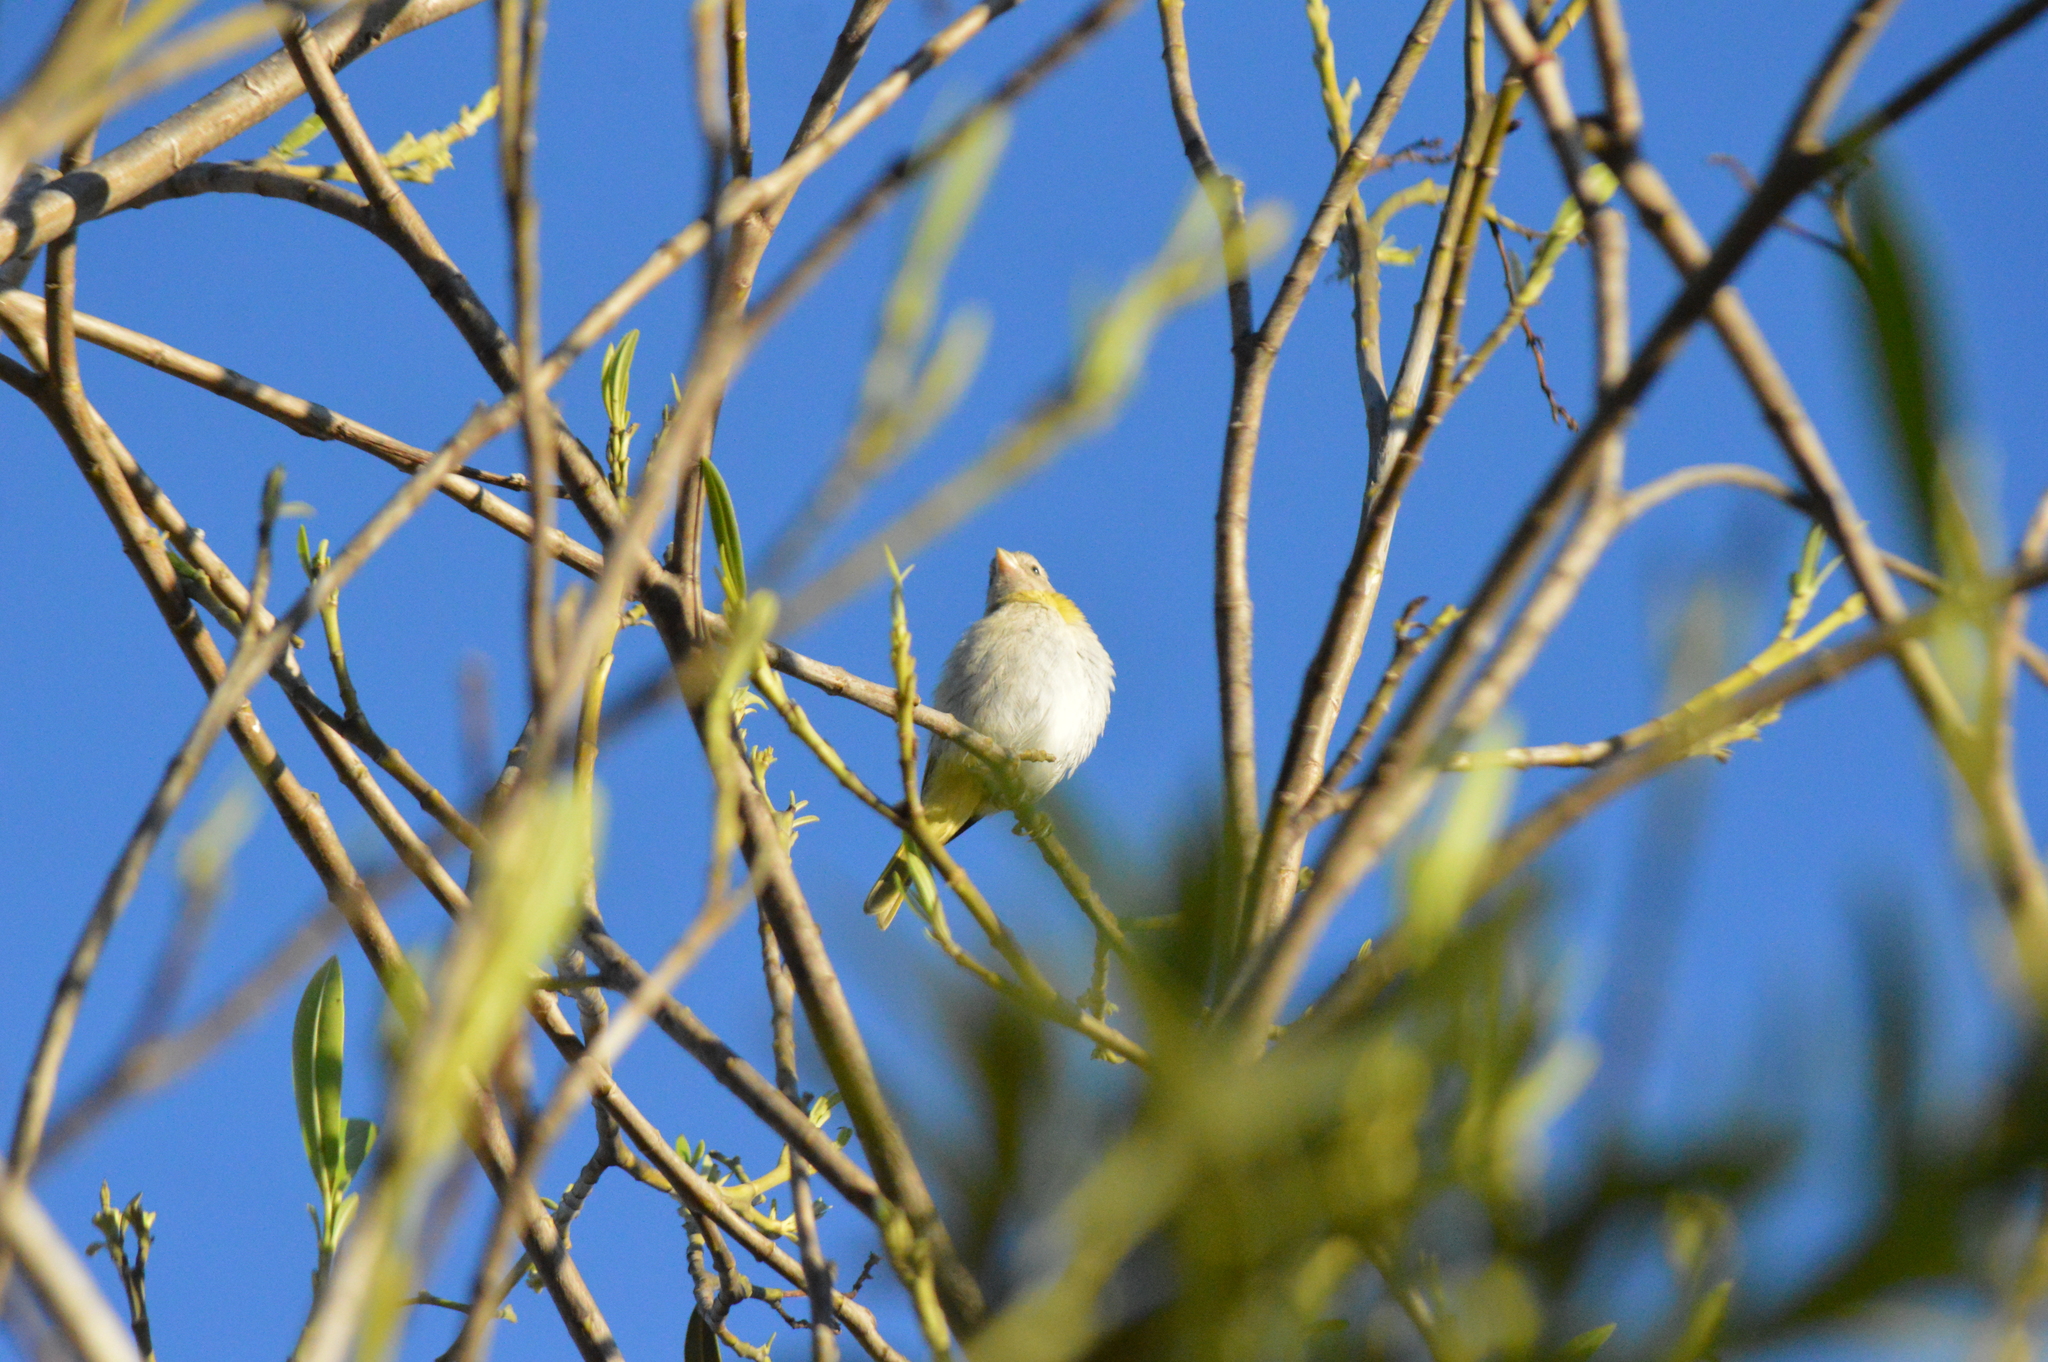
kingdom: Animalia
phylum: Chordata
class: Aves
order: Passeriformes
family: Thraupidae
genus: Sicalis
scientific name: Sicalis flaveola
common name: Saffron finch
